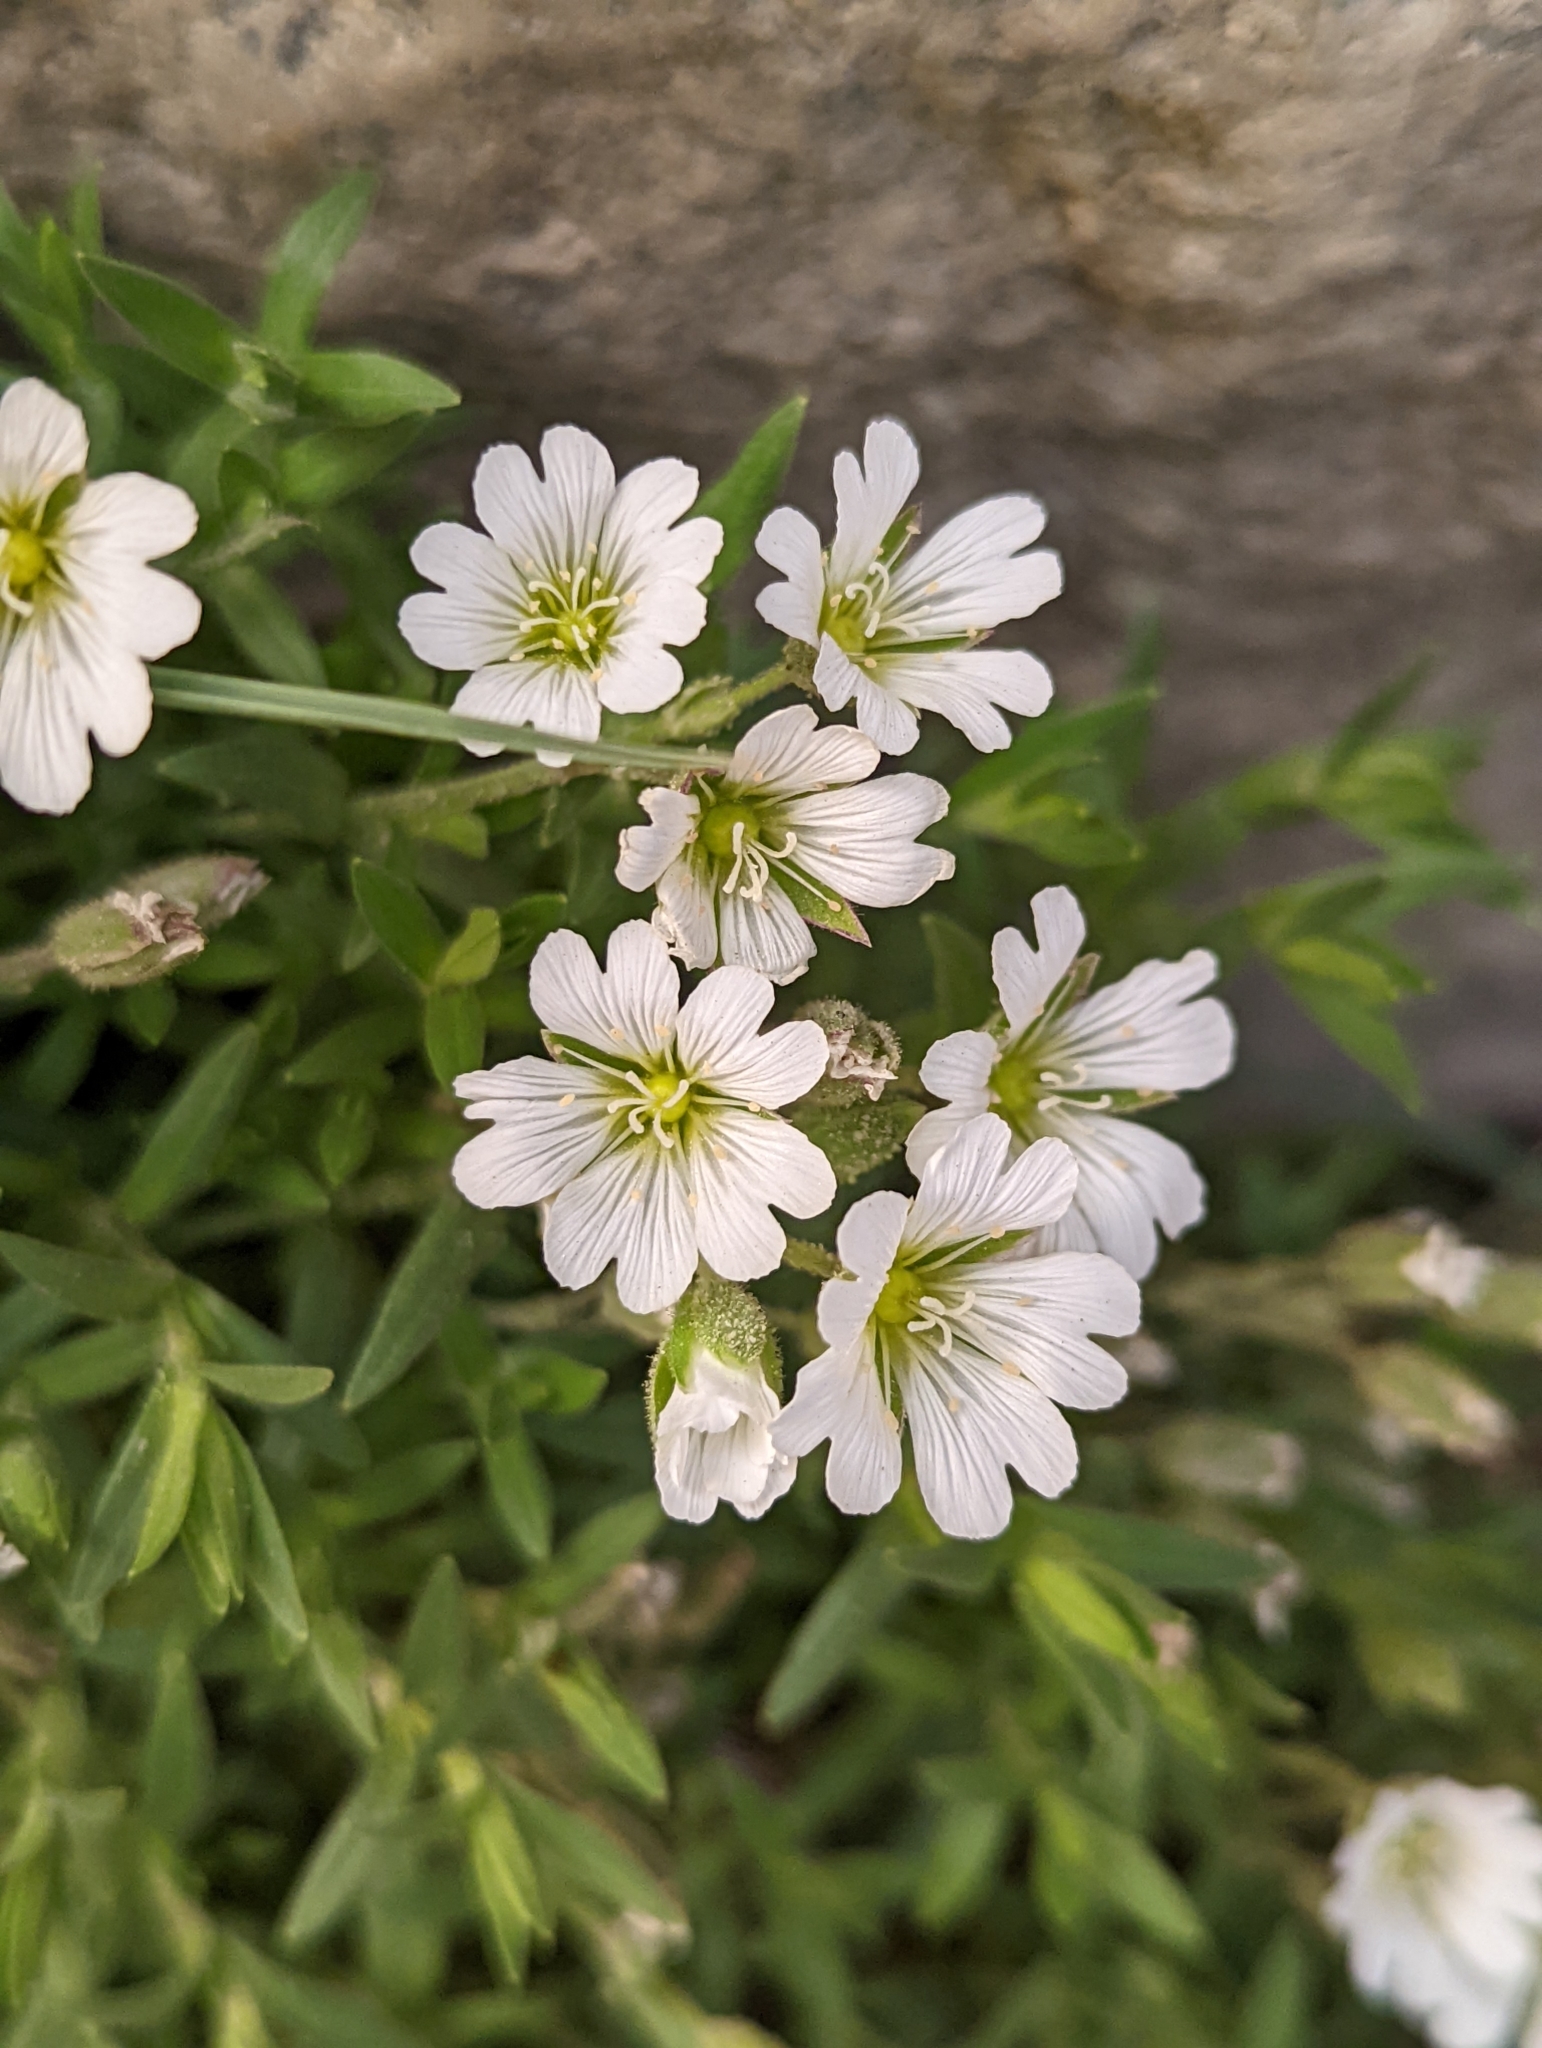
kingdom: Plantae
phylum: Tracheophyta
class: Magnoliopsida
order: Caryophyllales
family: Caryophyllaceae
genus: Cerastium
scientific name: Cerastium arvense
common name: Field mouse-ear
